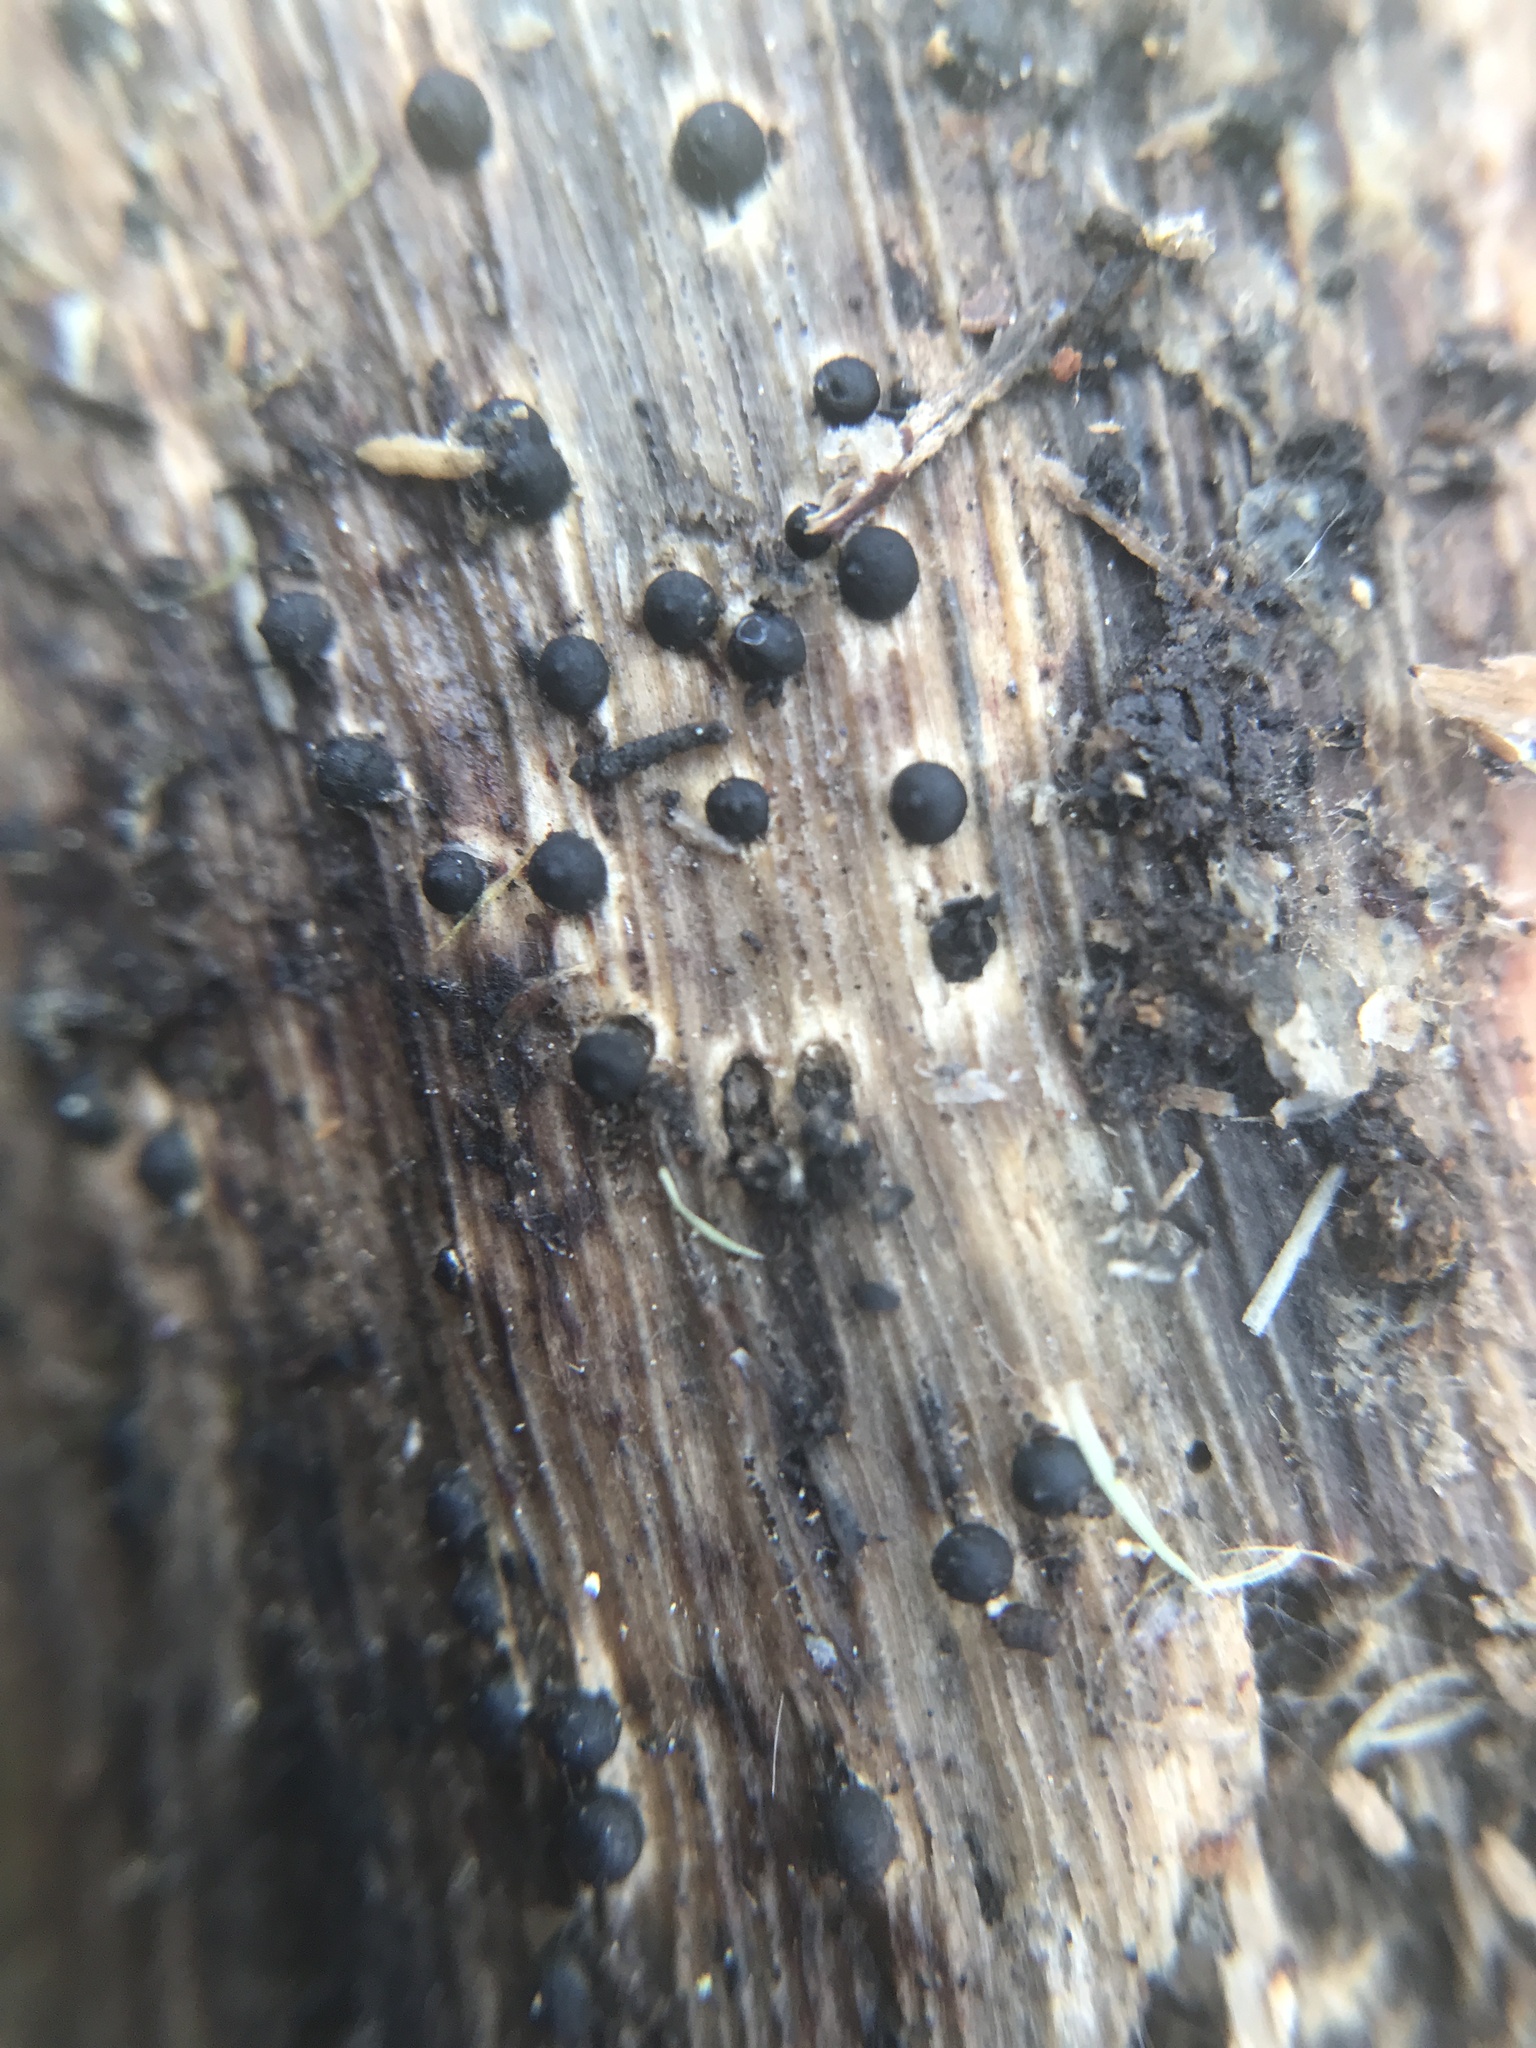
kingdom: Fungi
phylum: Ascomycota
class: Sordariomycetes
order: Xylariales
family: Xylariaceae
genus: Rosellinia
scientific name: Rosellinia subiculata
